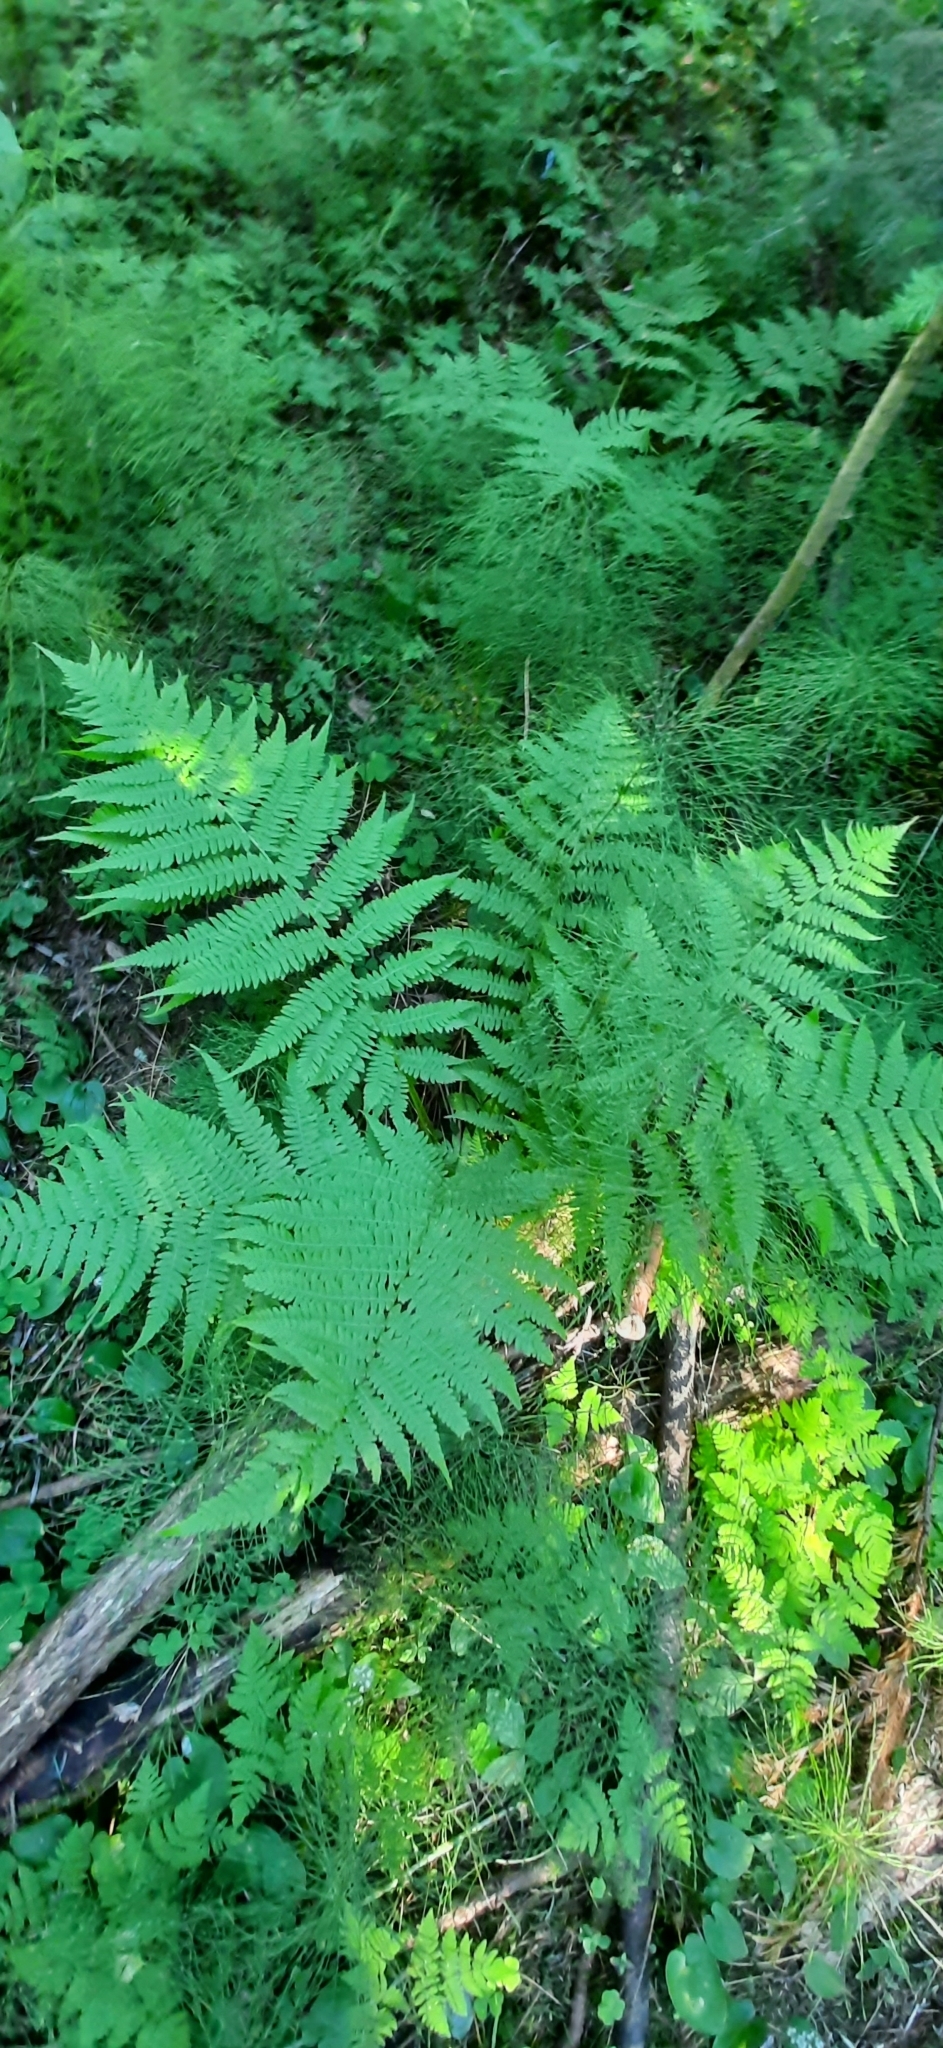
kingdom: Plantae
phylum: Tracheophyta
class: Polypodiopsida
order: Polypodiales
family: Athyriaceae
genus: Athyrium
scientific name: Athyrium filix-femina
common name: Lady fern
